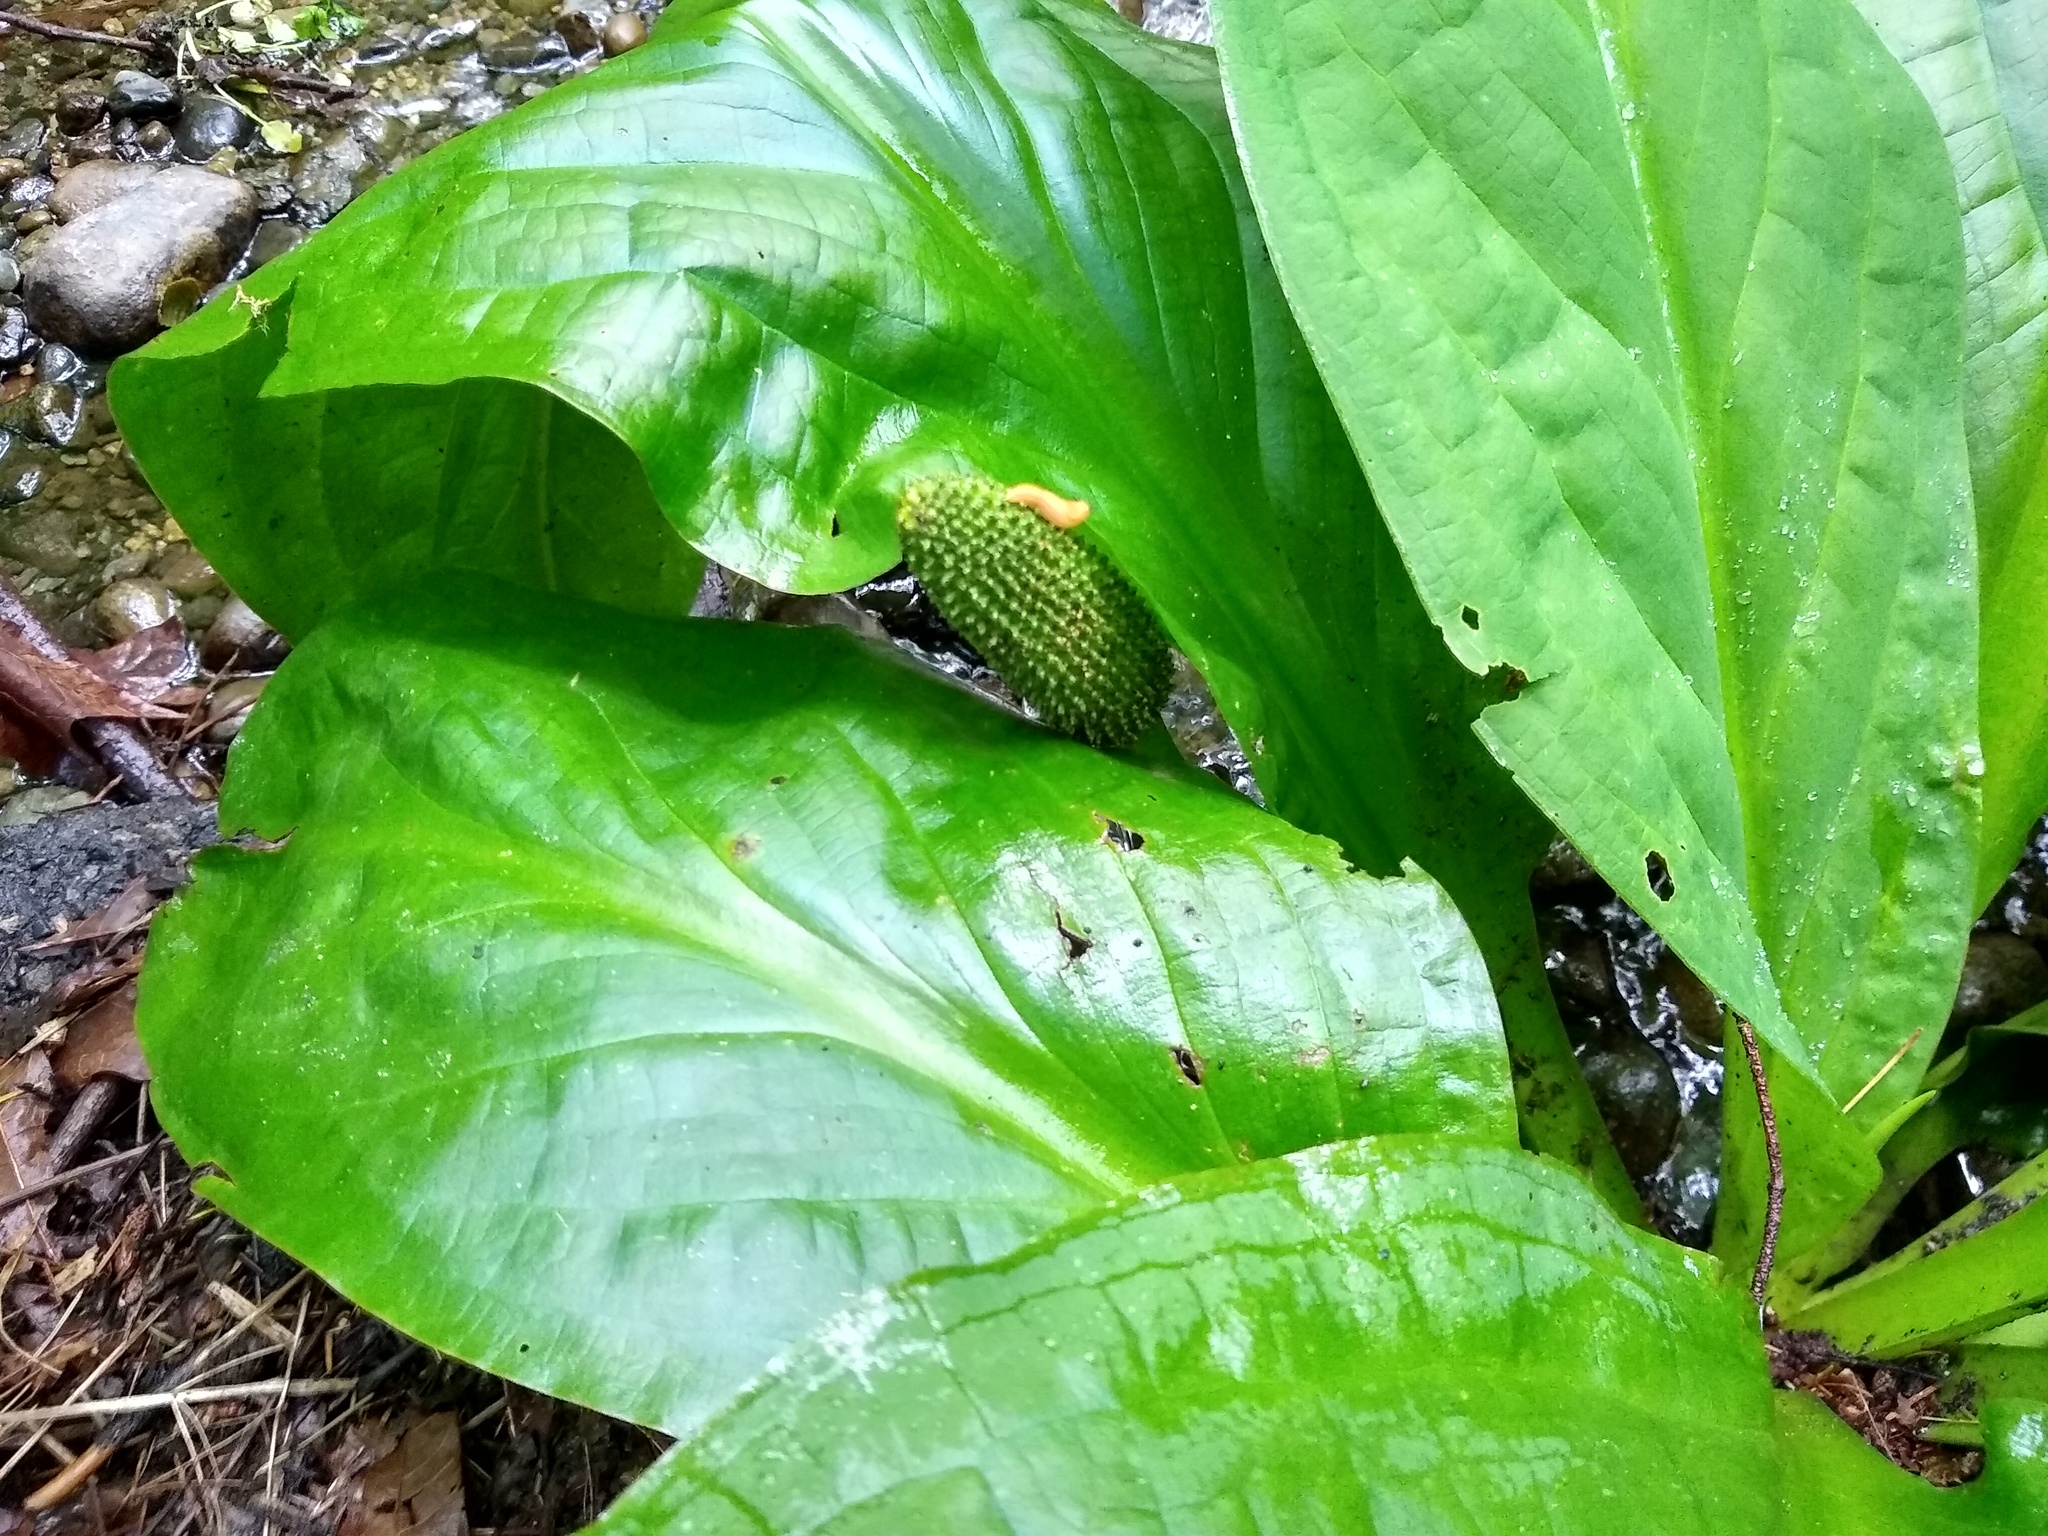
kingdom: Plantae
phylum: Tracheophyta
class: Liliopsida
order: Alismatales
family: Araceae
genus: Lysichiton
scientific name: Lysichiton americanus
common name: American skunk cabbage
